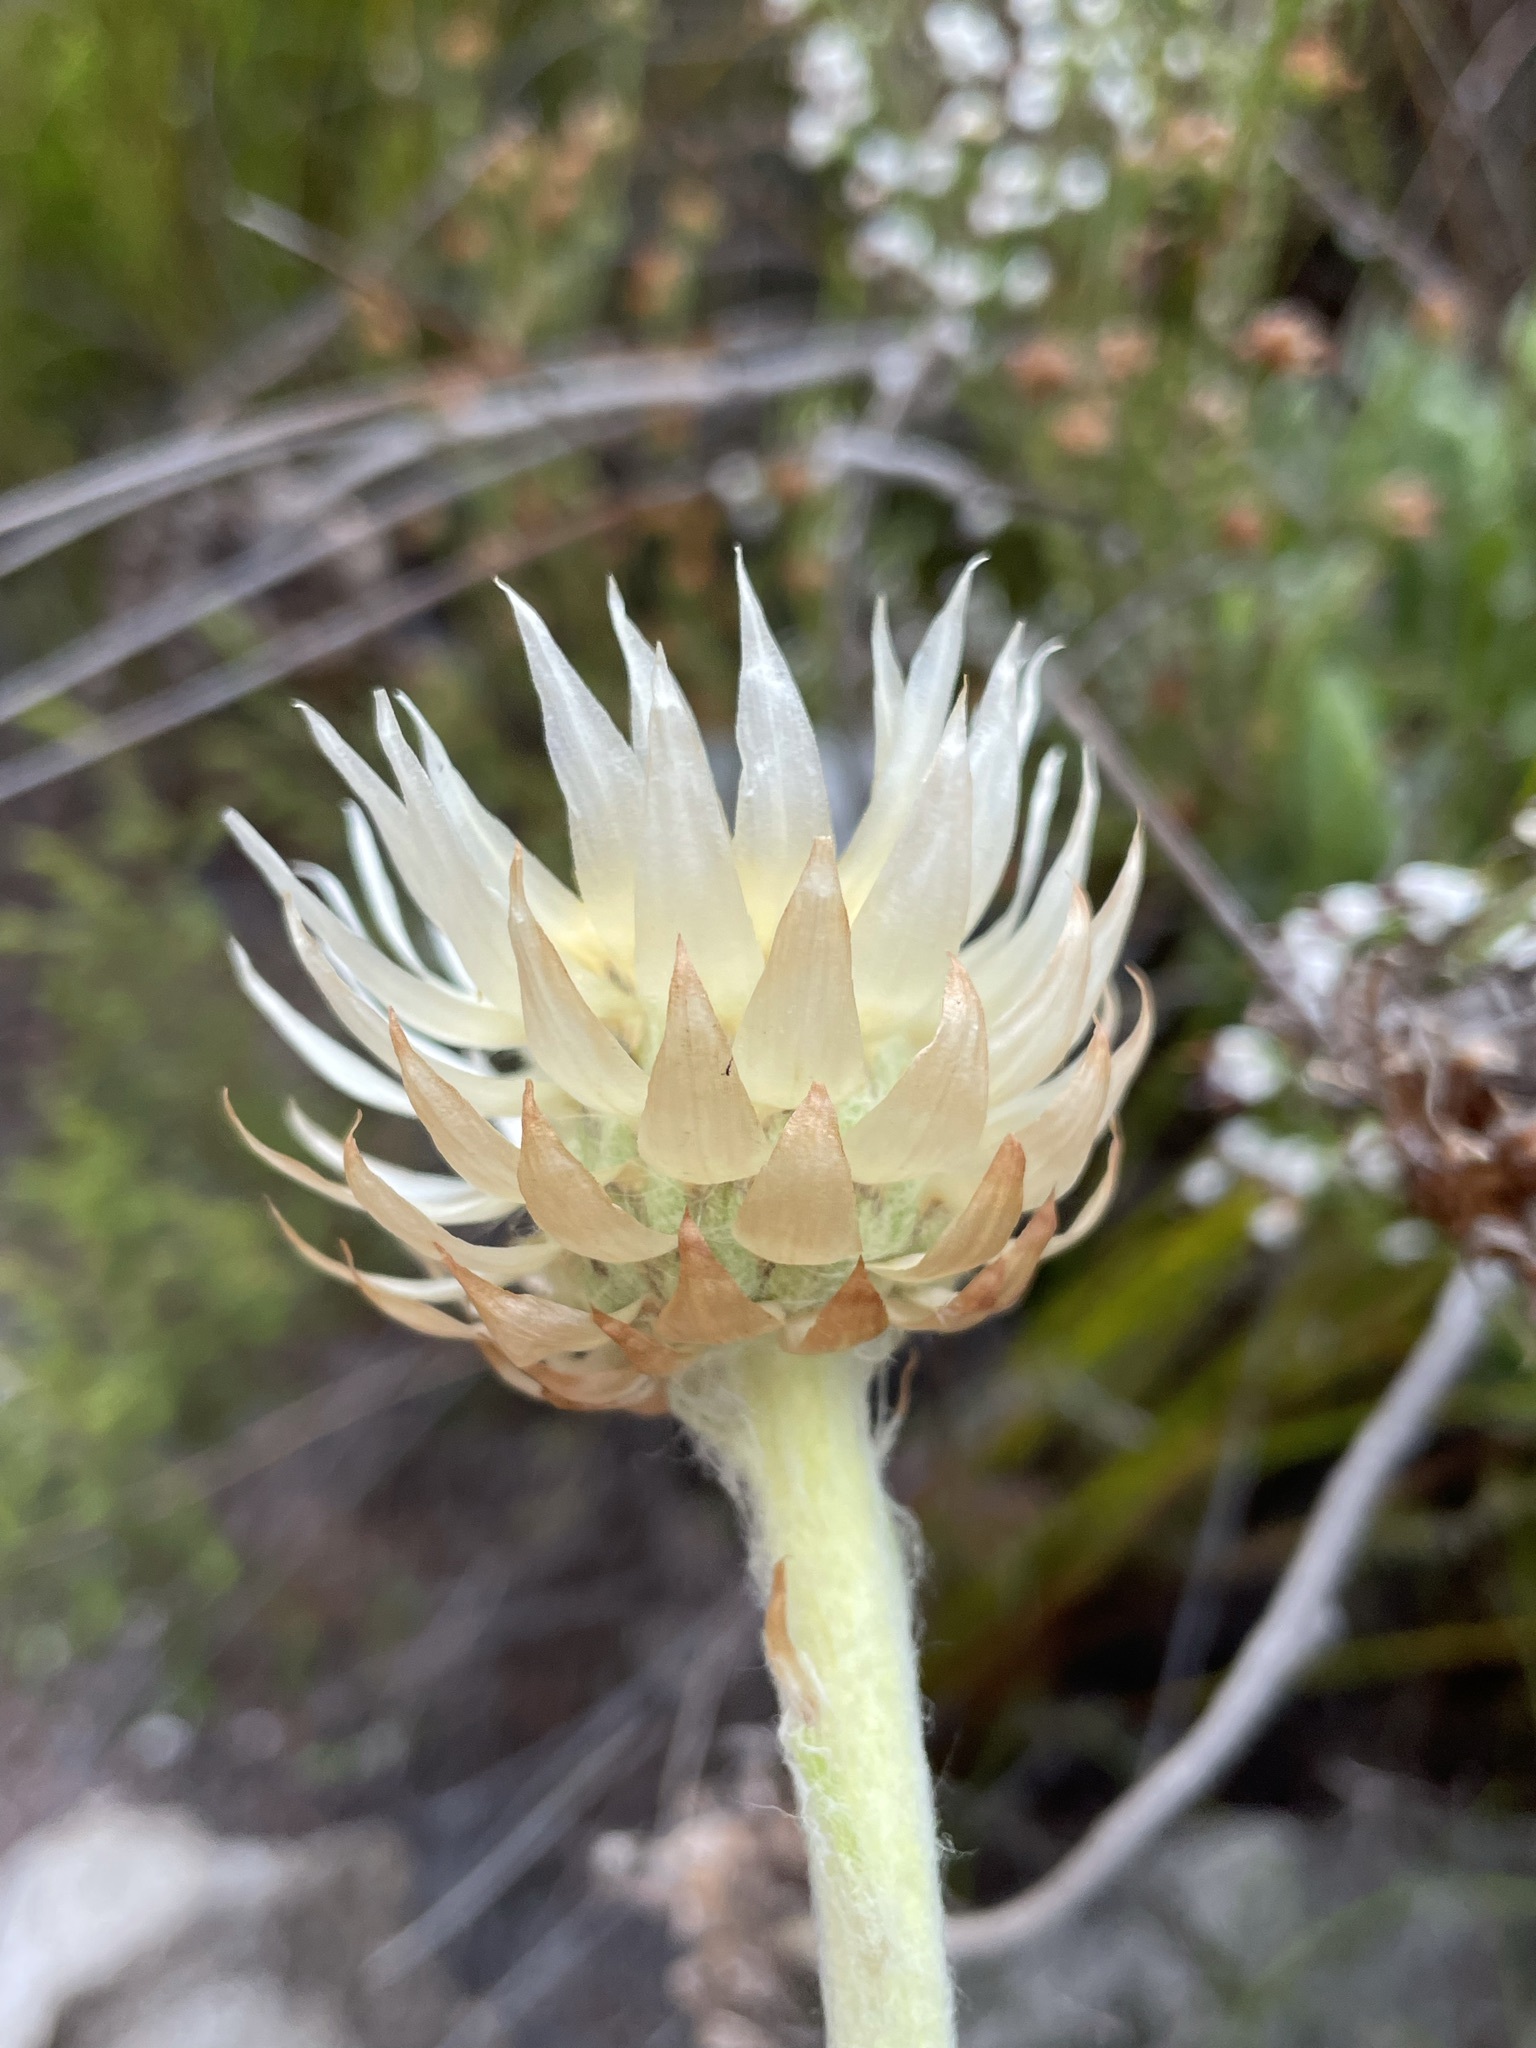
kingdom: Plantae
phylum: Tracheophyta
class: Magnoliopsida
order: Asterales
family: Asteraceae
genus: Syncarpha
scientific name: Syncarpha speciosissima
